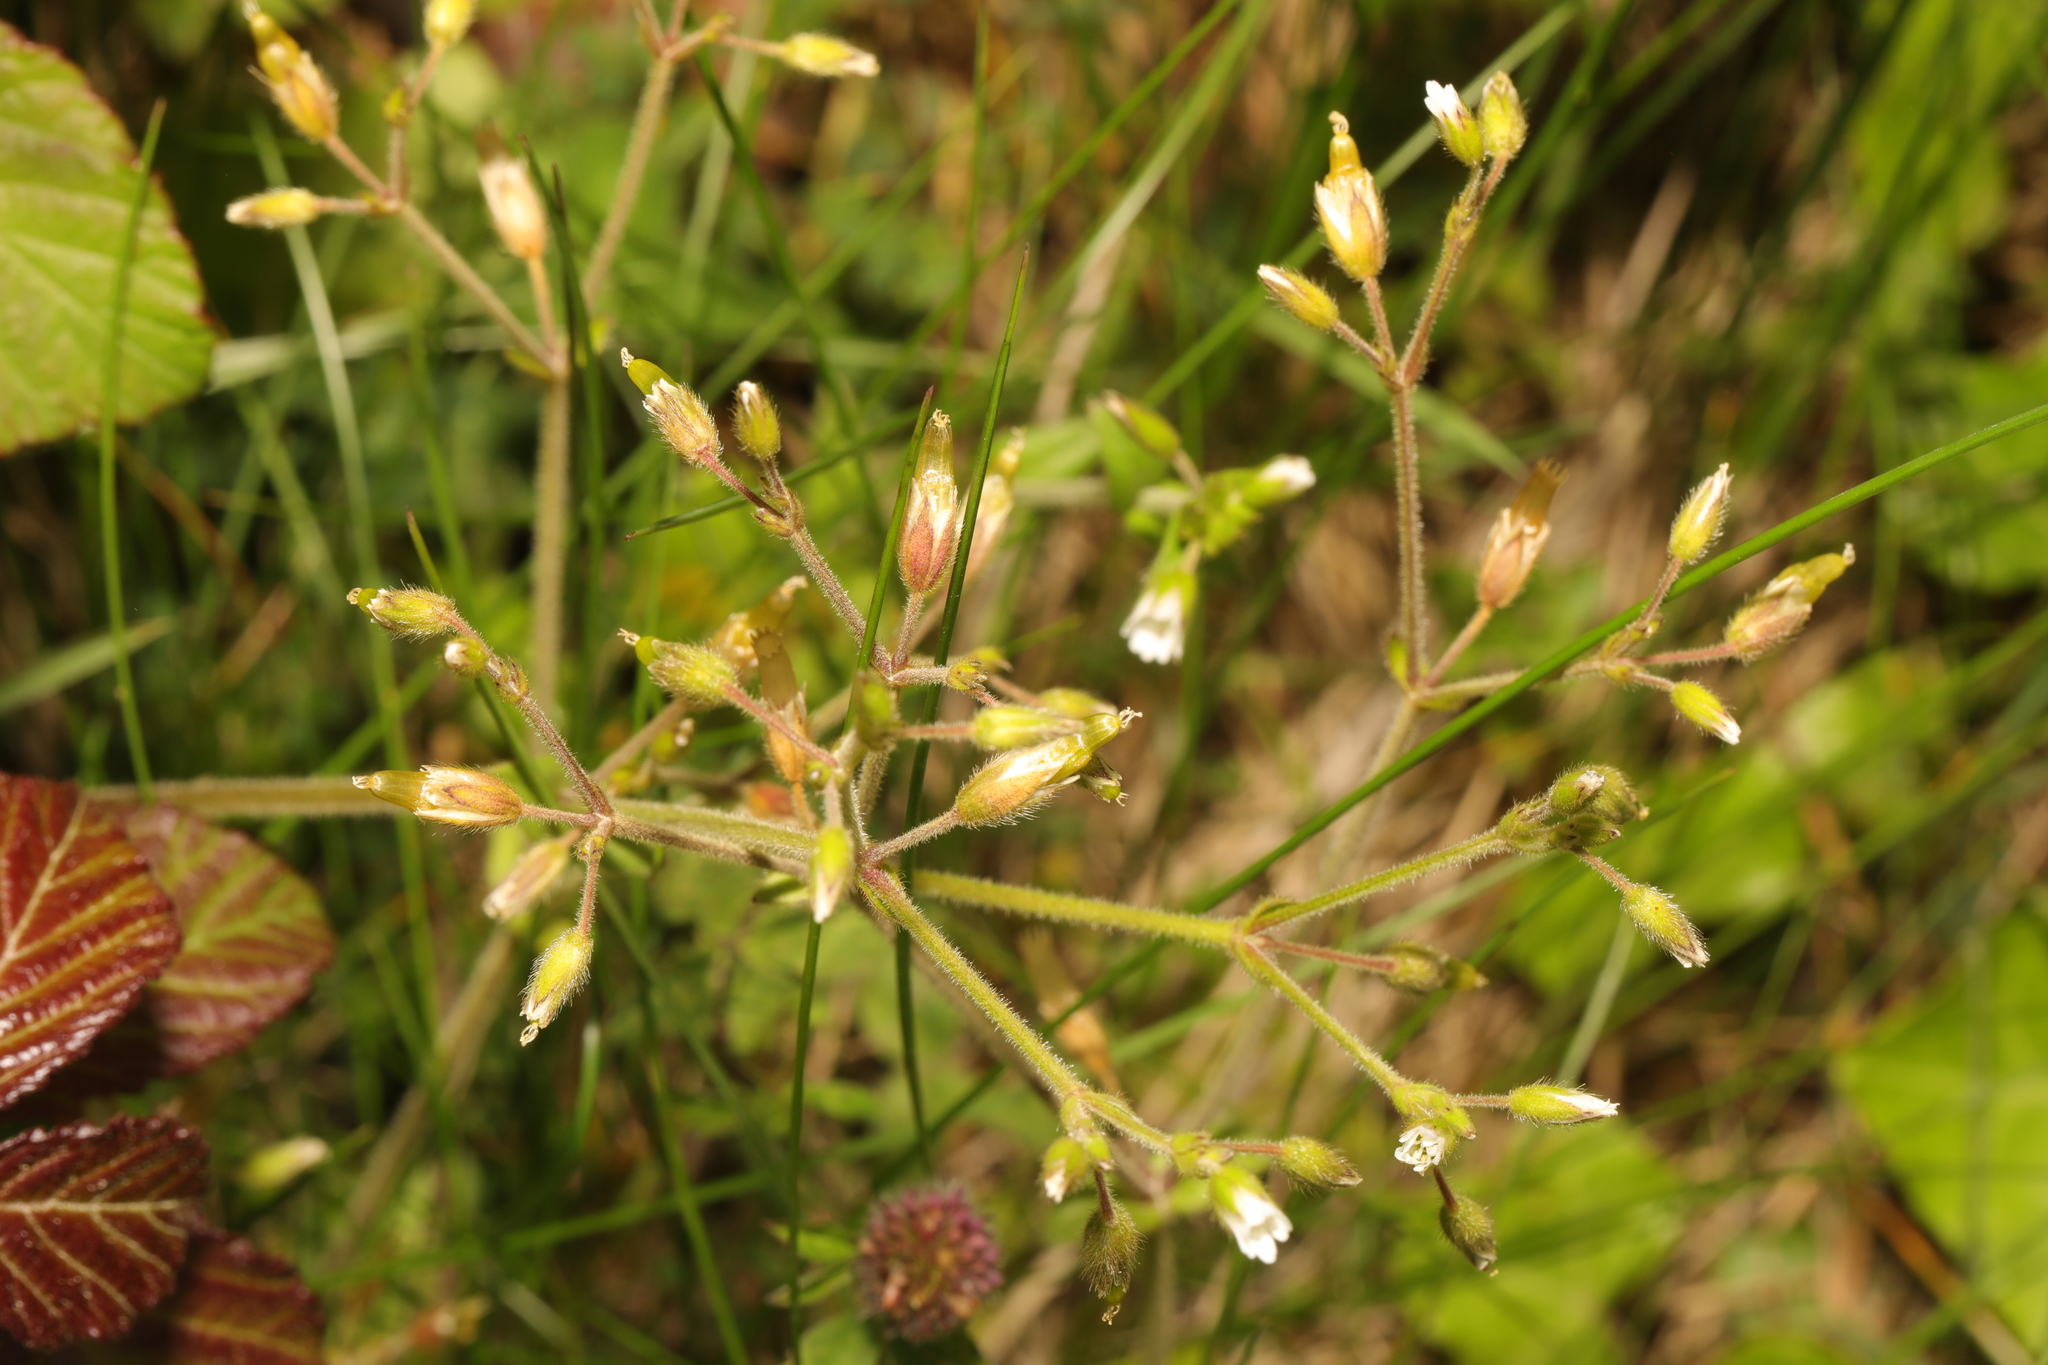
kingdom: Plantae
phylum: Tracheophyta
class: Magnoliopsida
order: Caryophyllales
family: Caryophyllaceae
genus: Cerastium
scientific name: Cerastium fontanum
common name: Common mouse-ear
